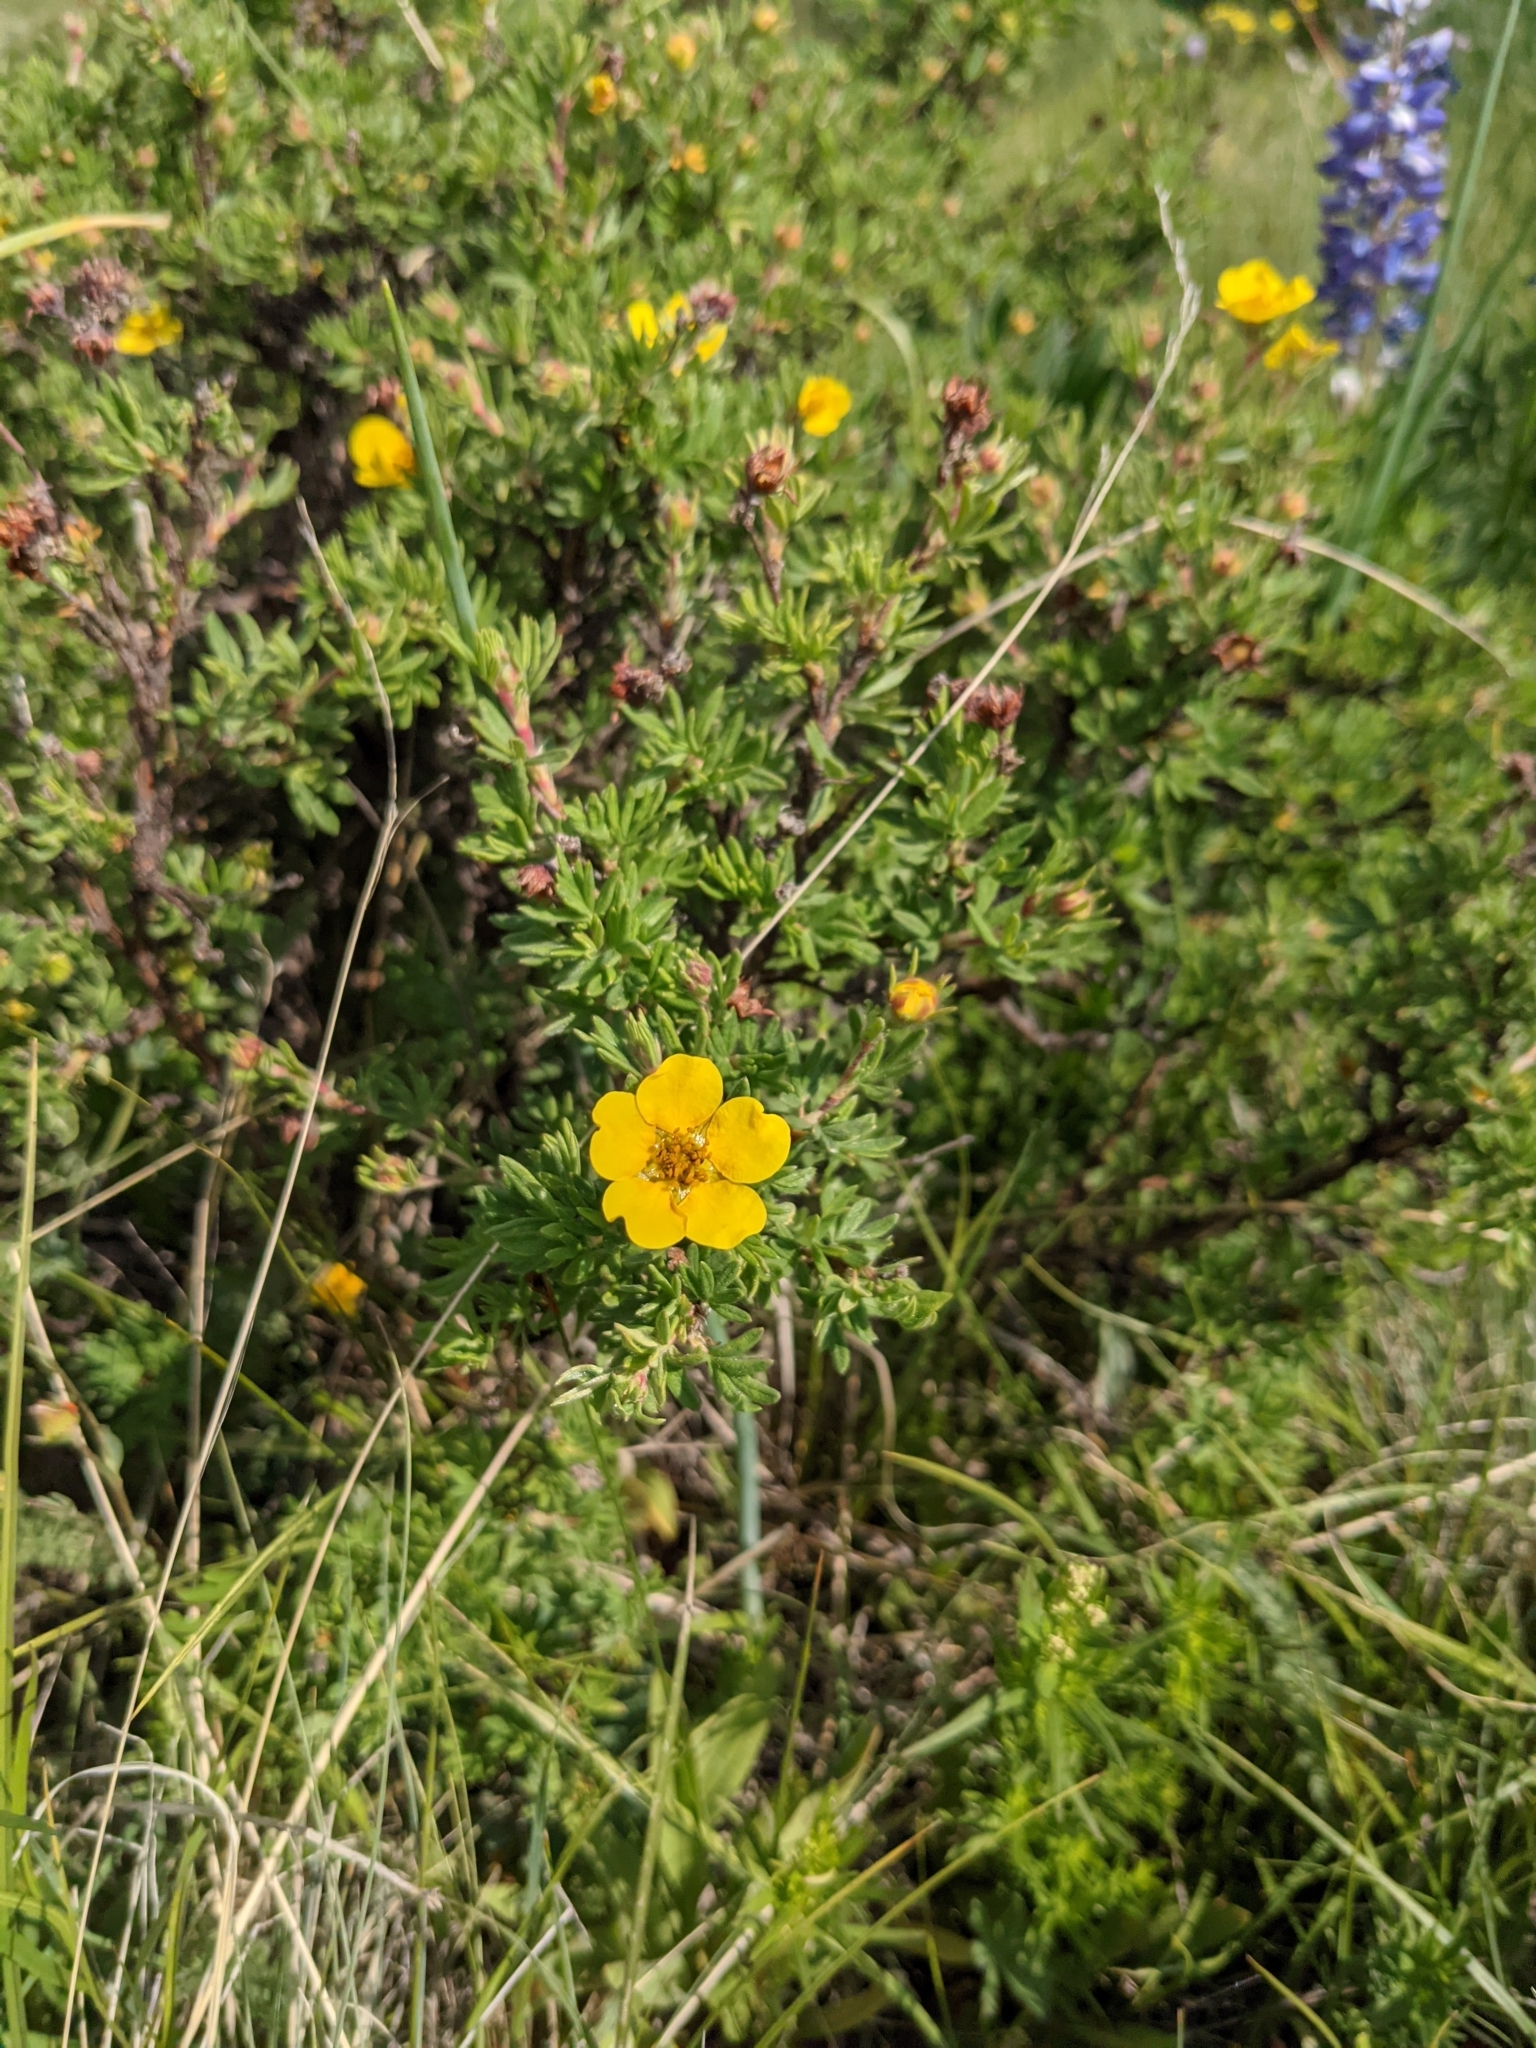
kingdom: Plantae
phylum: Tracheophyta
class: Magnoliopsida
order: Rosales
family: Rosaceae
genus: Dasiphora
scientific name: Dasiphora fruticosa
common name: Shrubby cinquefoil
